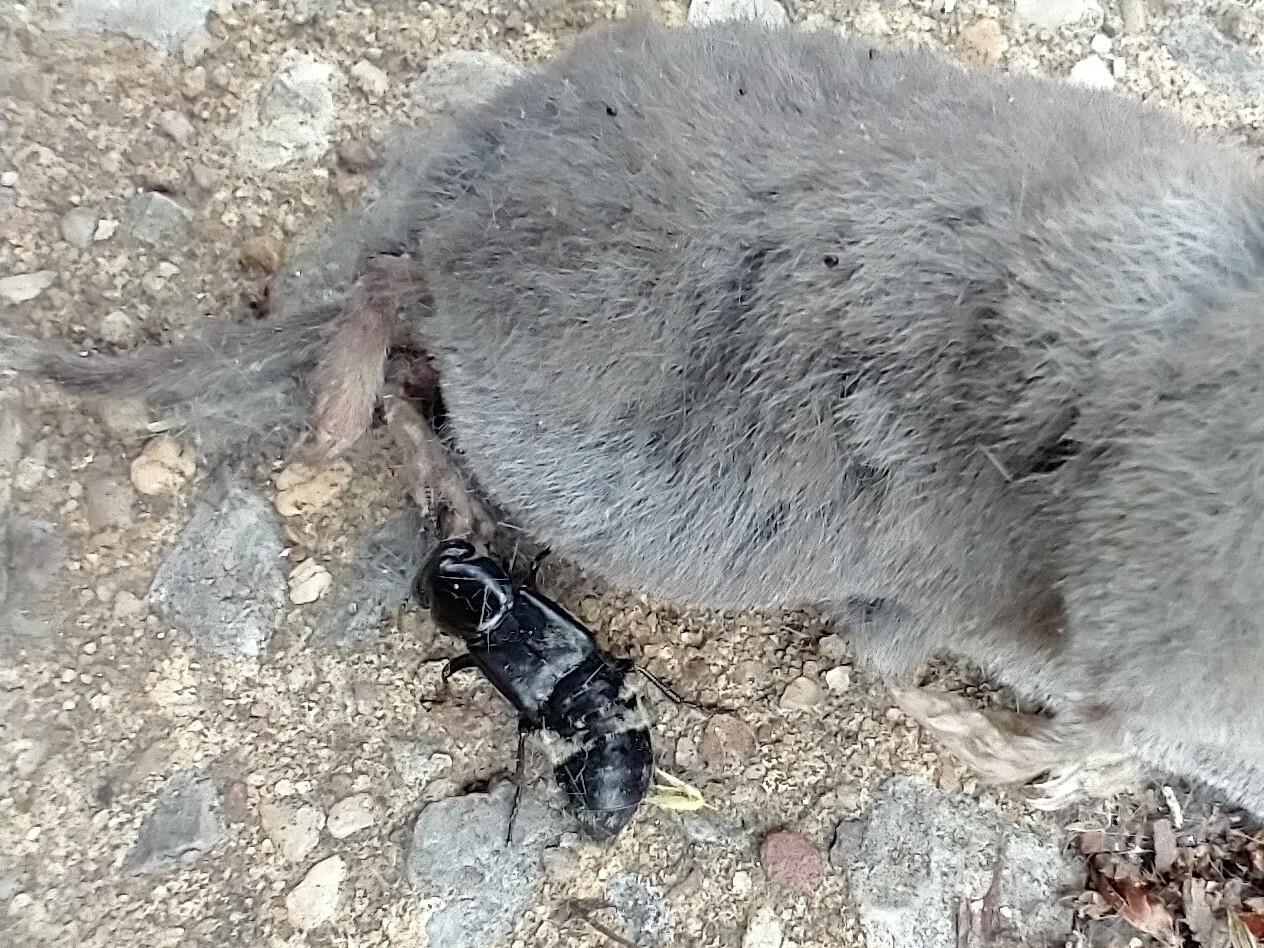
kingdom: Animalia
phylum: Arthropoda
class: Insecta
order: Coleoptera
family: Staphylinidae
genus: Creophilus
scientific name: Creophilus maxillosus
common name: Hairy rove beetle
